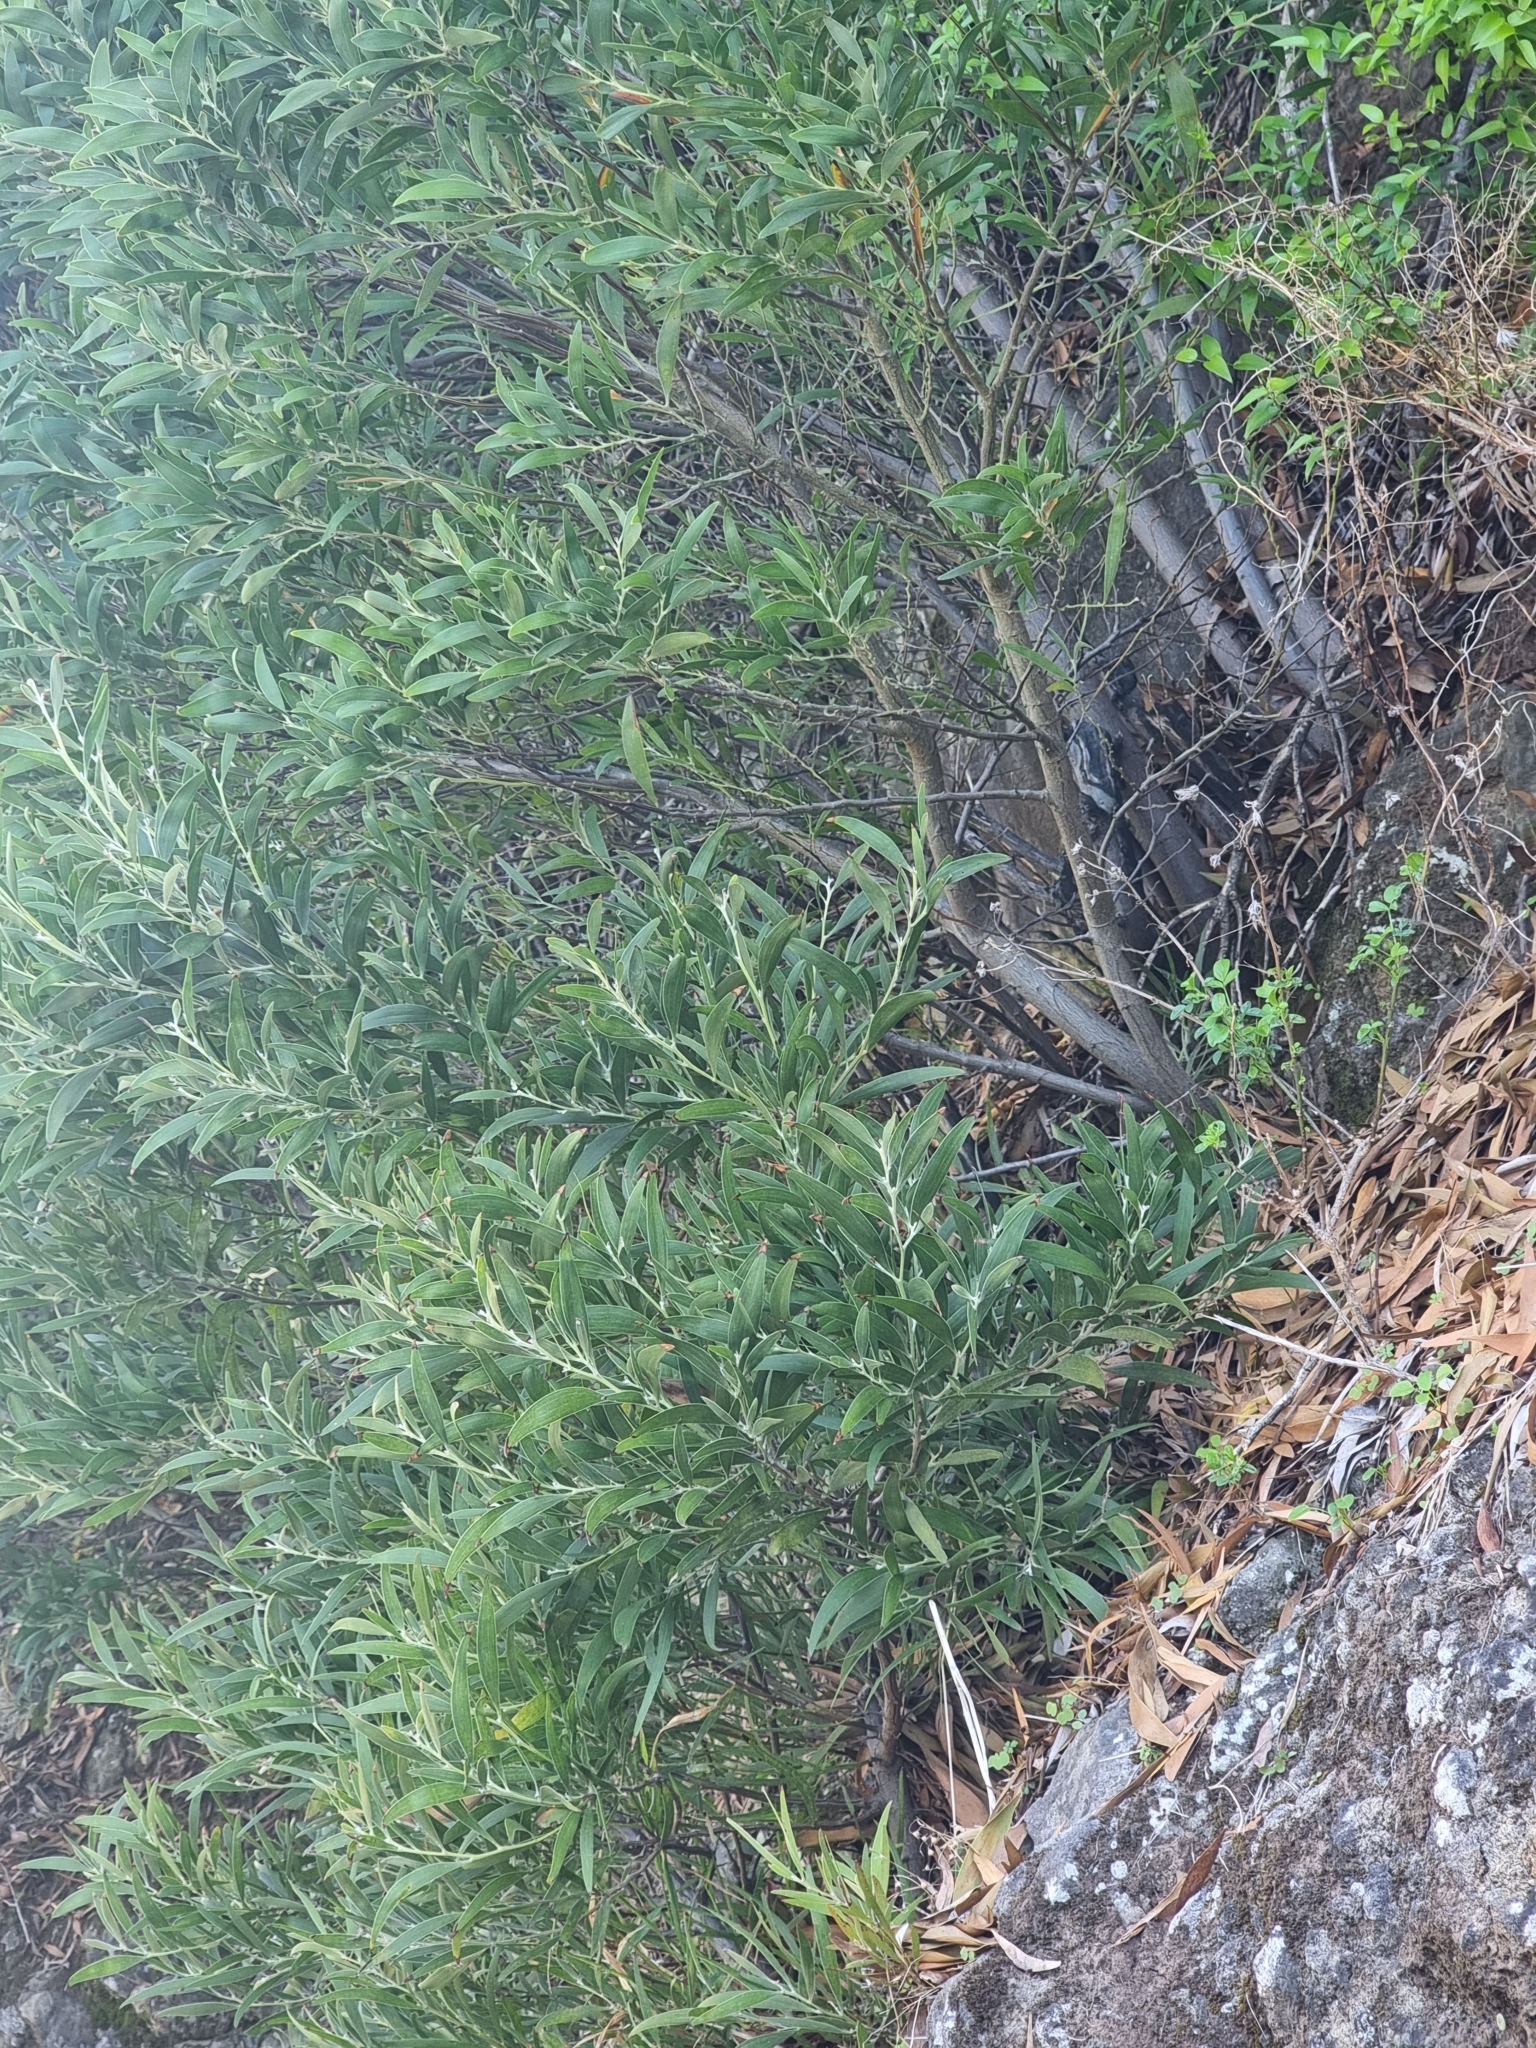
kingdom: Plantae
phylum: Tracheophyta
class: Magnoliopsida
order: Fabales
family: Fabaceae
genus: Acacia
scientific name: Acacia melanoxylon
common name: Blackwood
